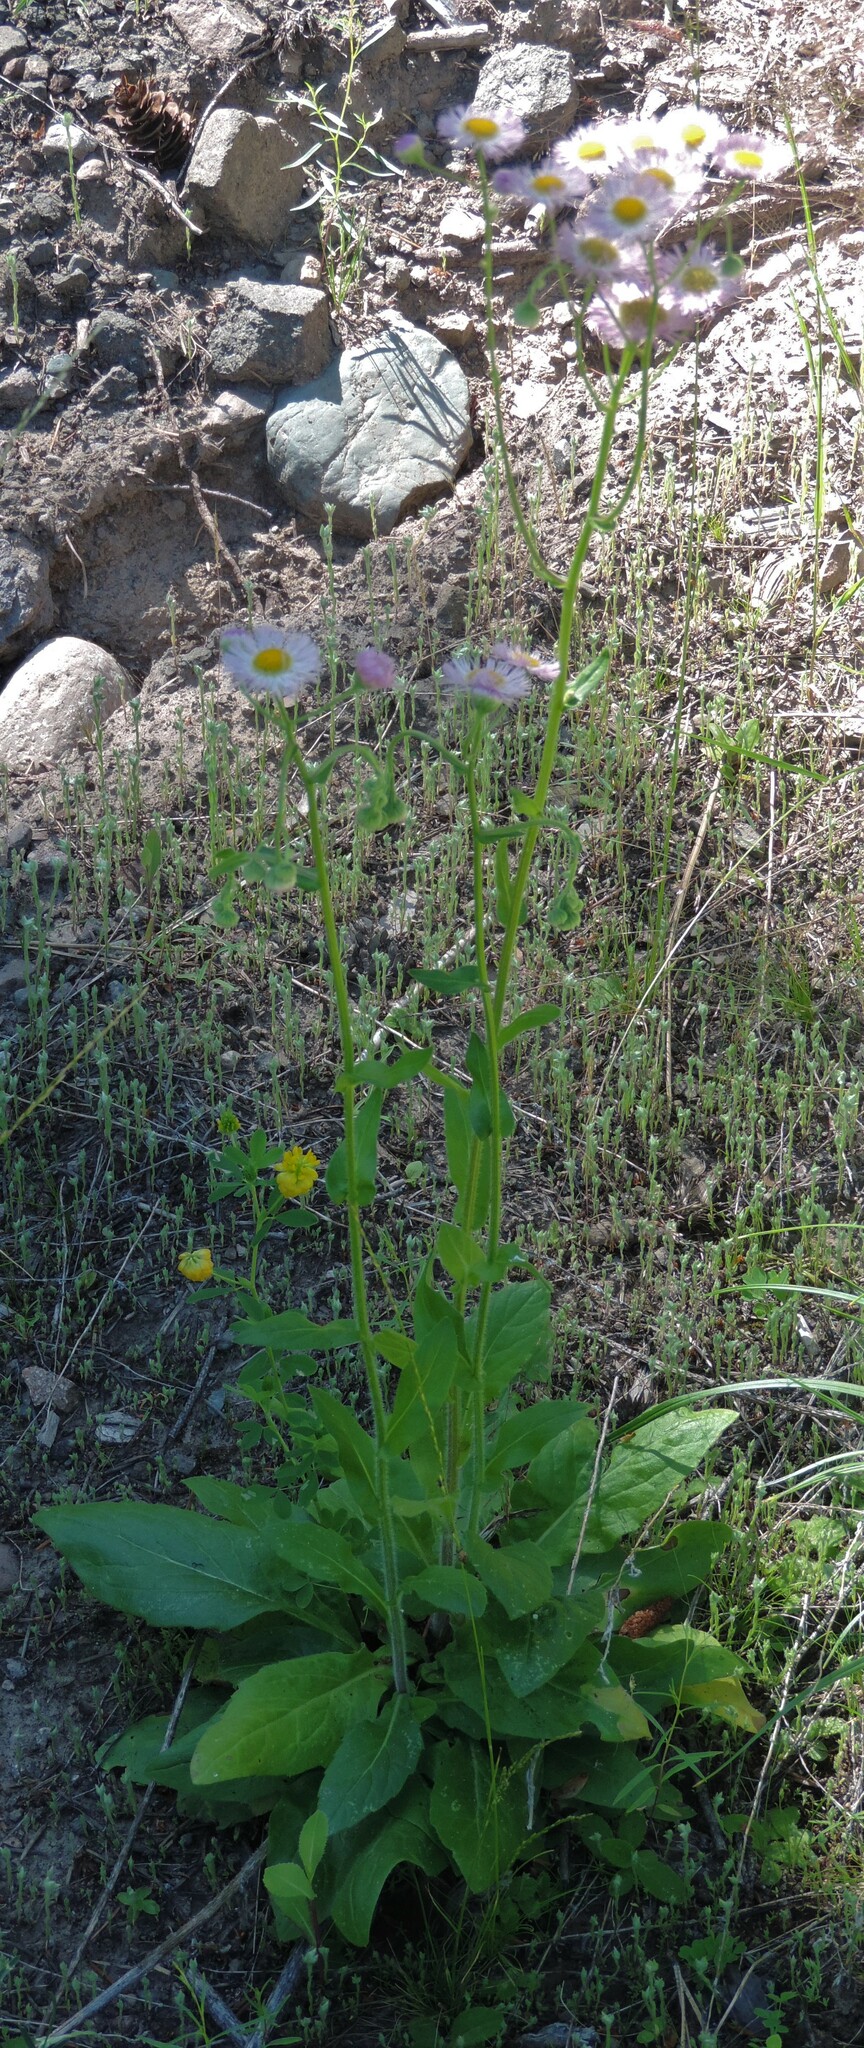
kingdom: Plantae
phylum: Tracheophyta
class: Magnoliopsida
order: Asterales
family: Asteraceae
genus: Erigeron
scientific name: Erigeron philadelphicus
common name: Robin's-plantain
